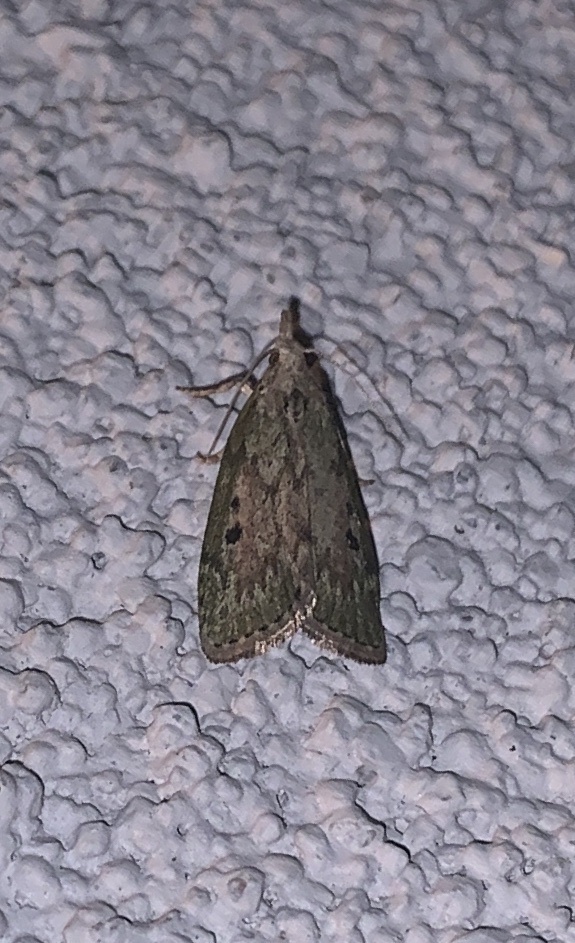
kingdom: Animalia
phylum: Arthropoda
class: Insecta
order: Lepidoptera
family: Pyralidae
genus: Aphomia
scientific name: Aphomia sociella
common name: Bee moth
